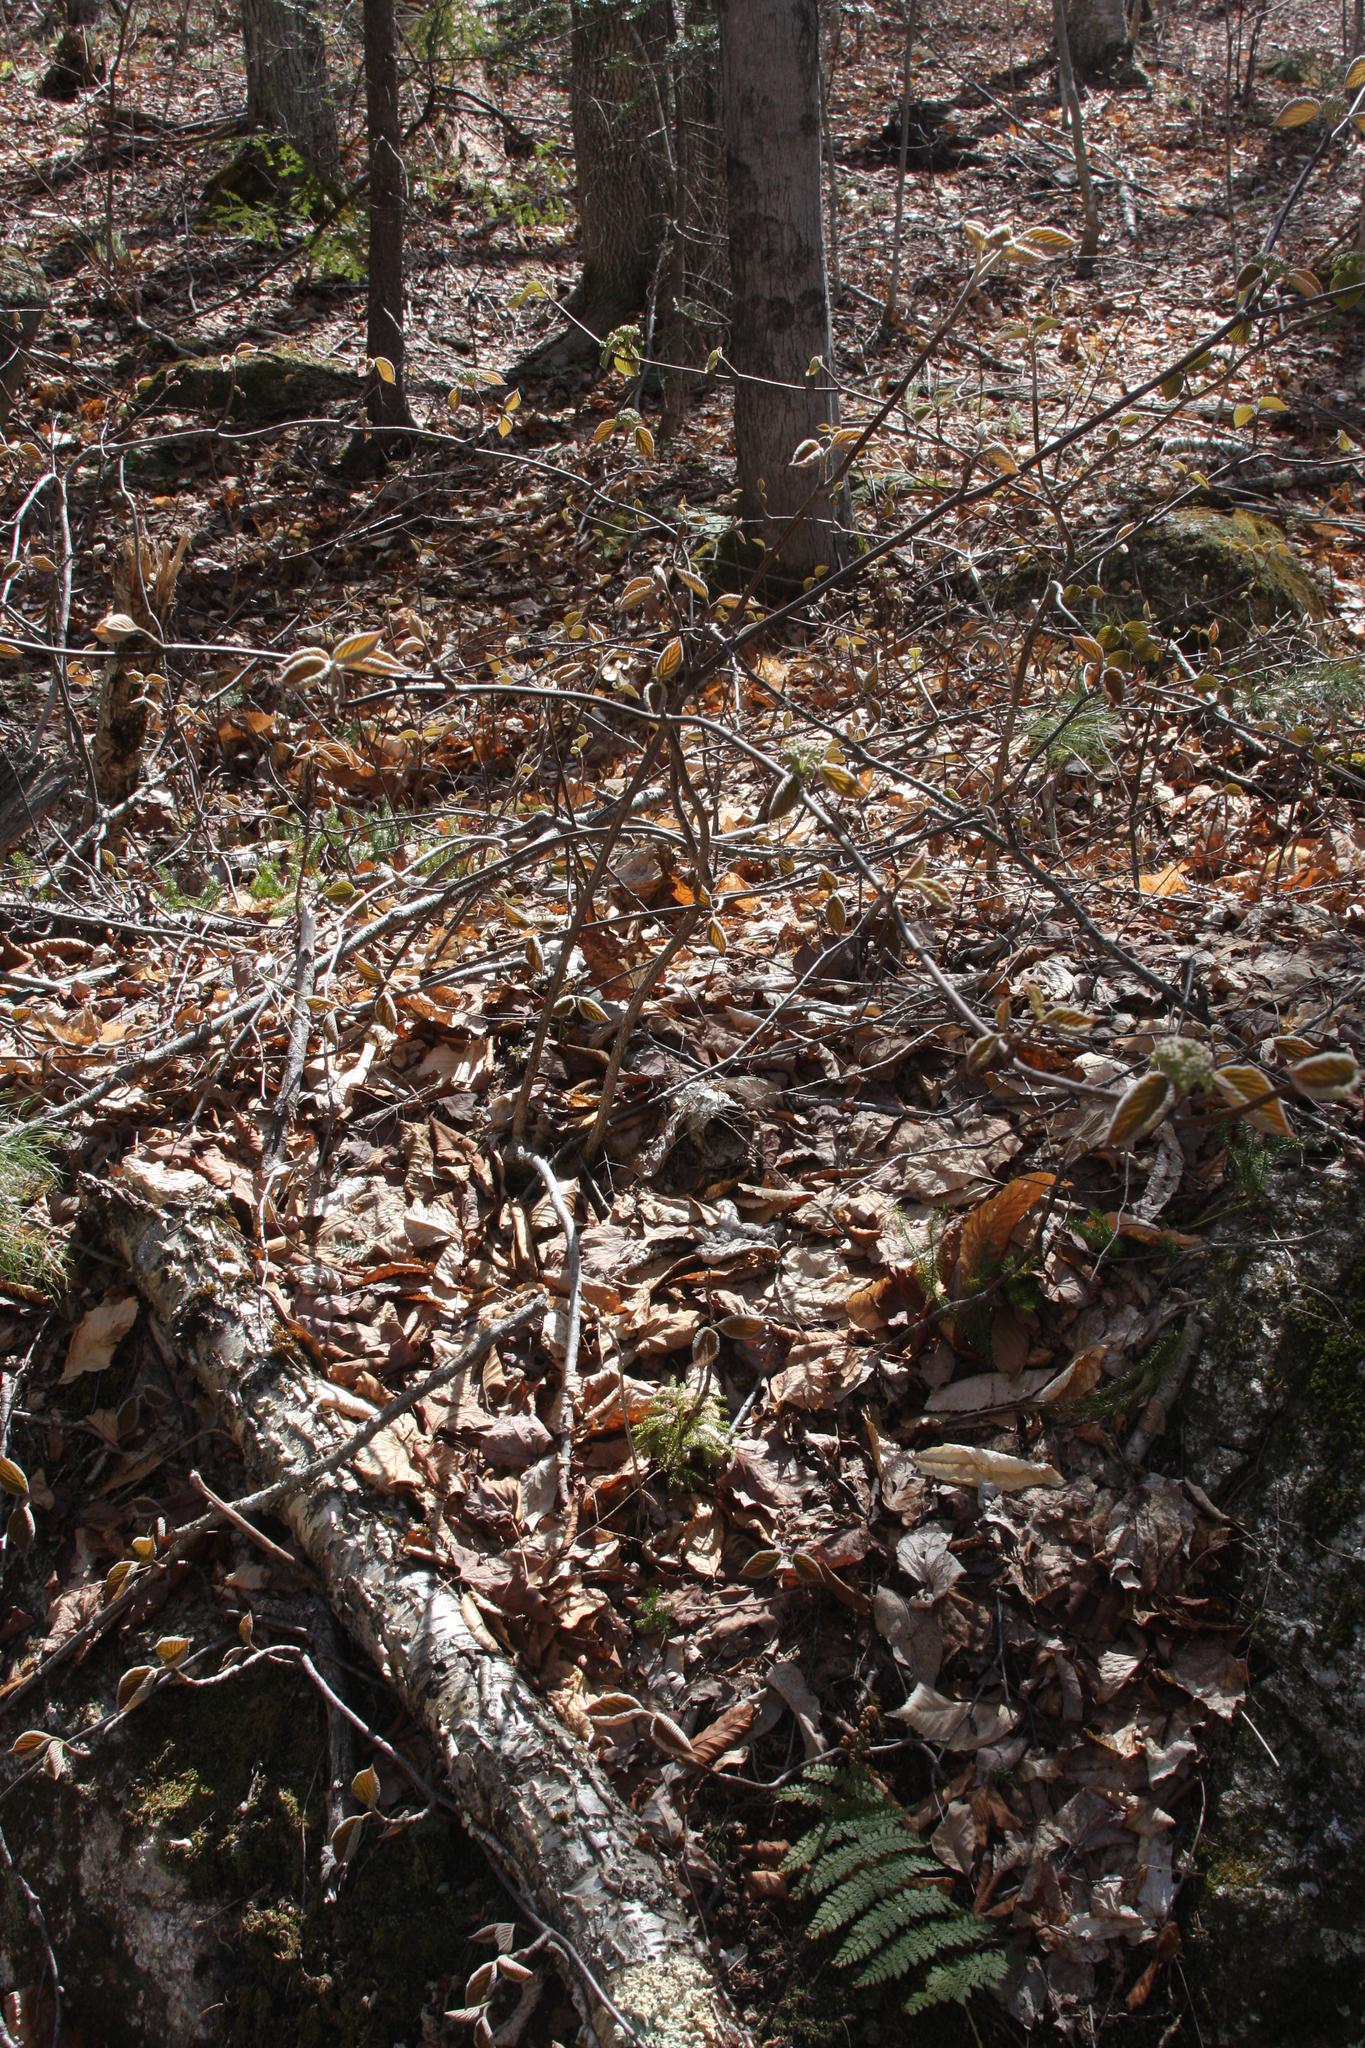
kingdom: Plantae
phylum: Tracheophyta
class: Magnoliopsida
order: Dipsacales
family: Viburnaceae
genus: Viburnum
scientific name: Viburnum lantanoides
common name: Hobblebush
